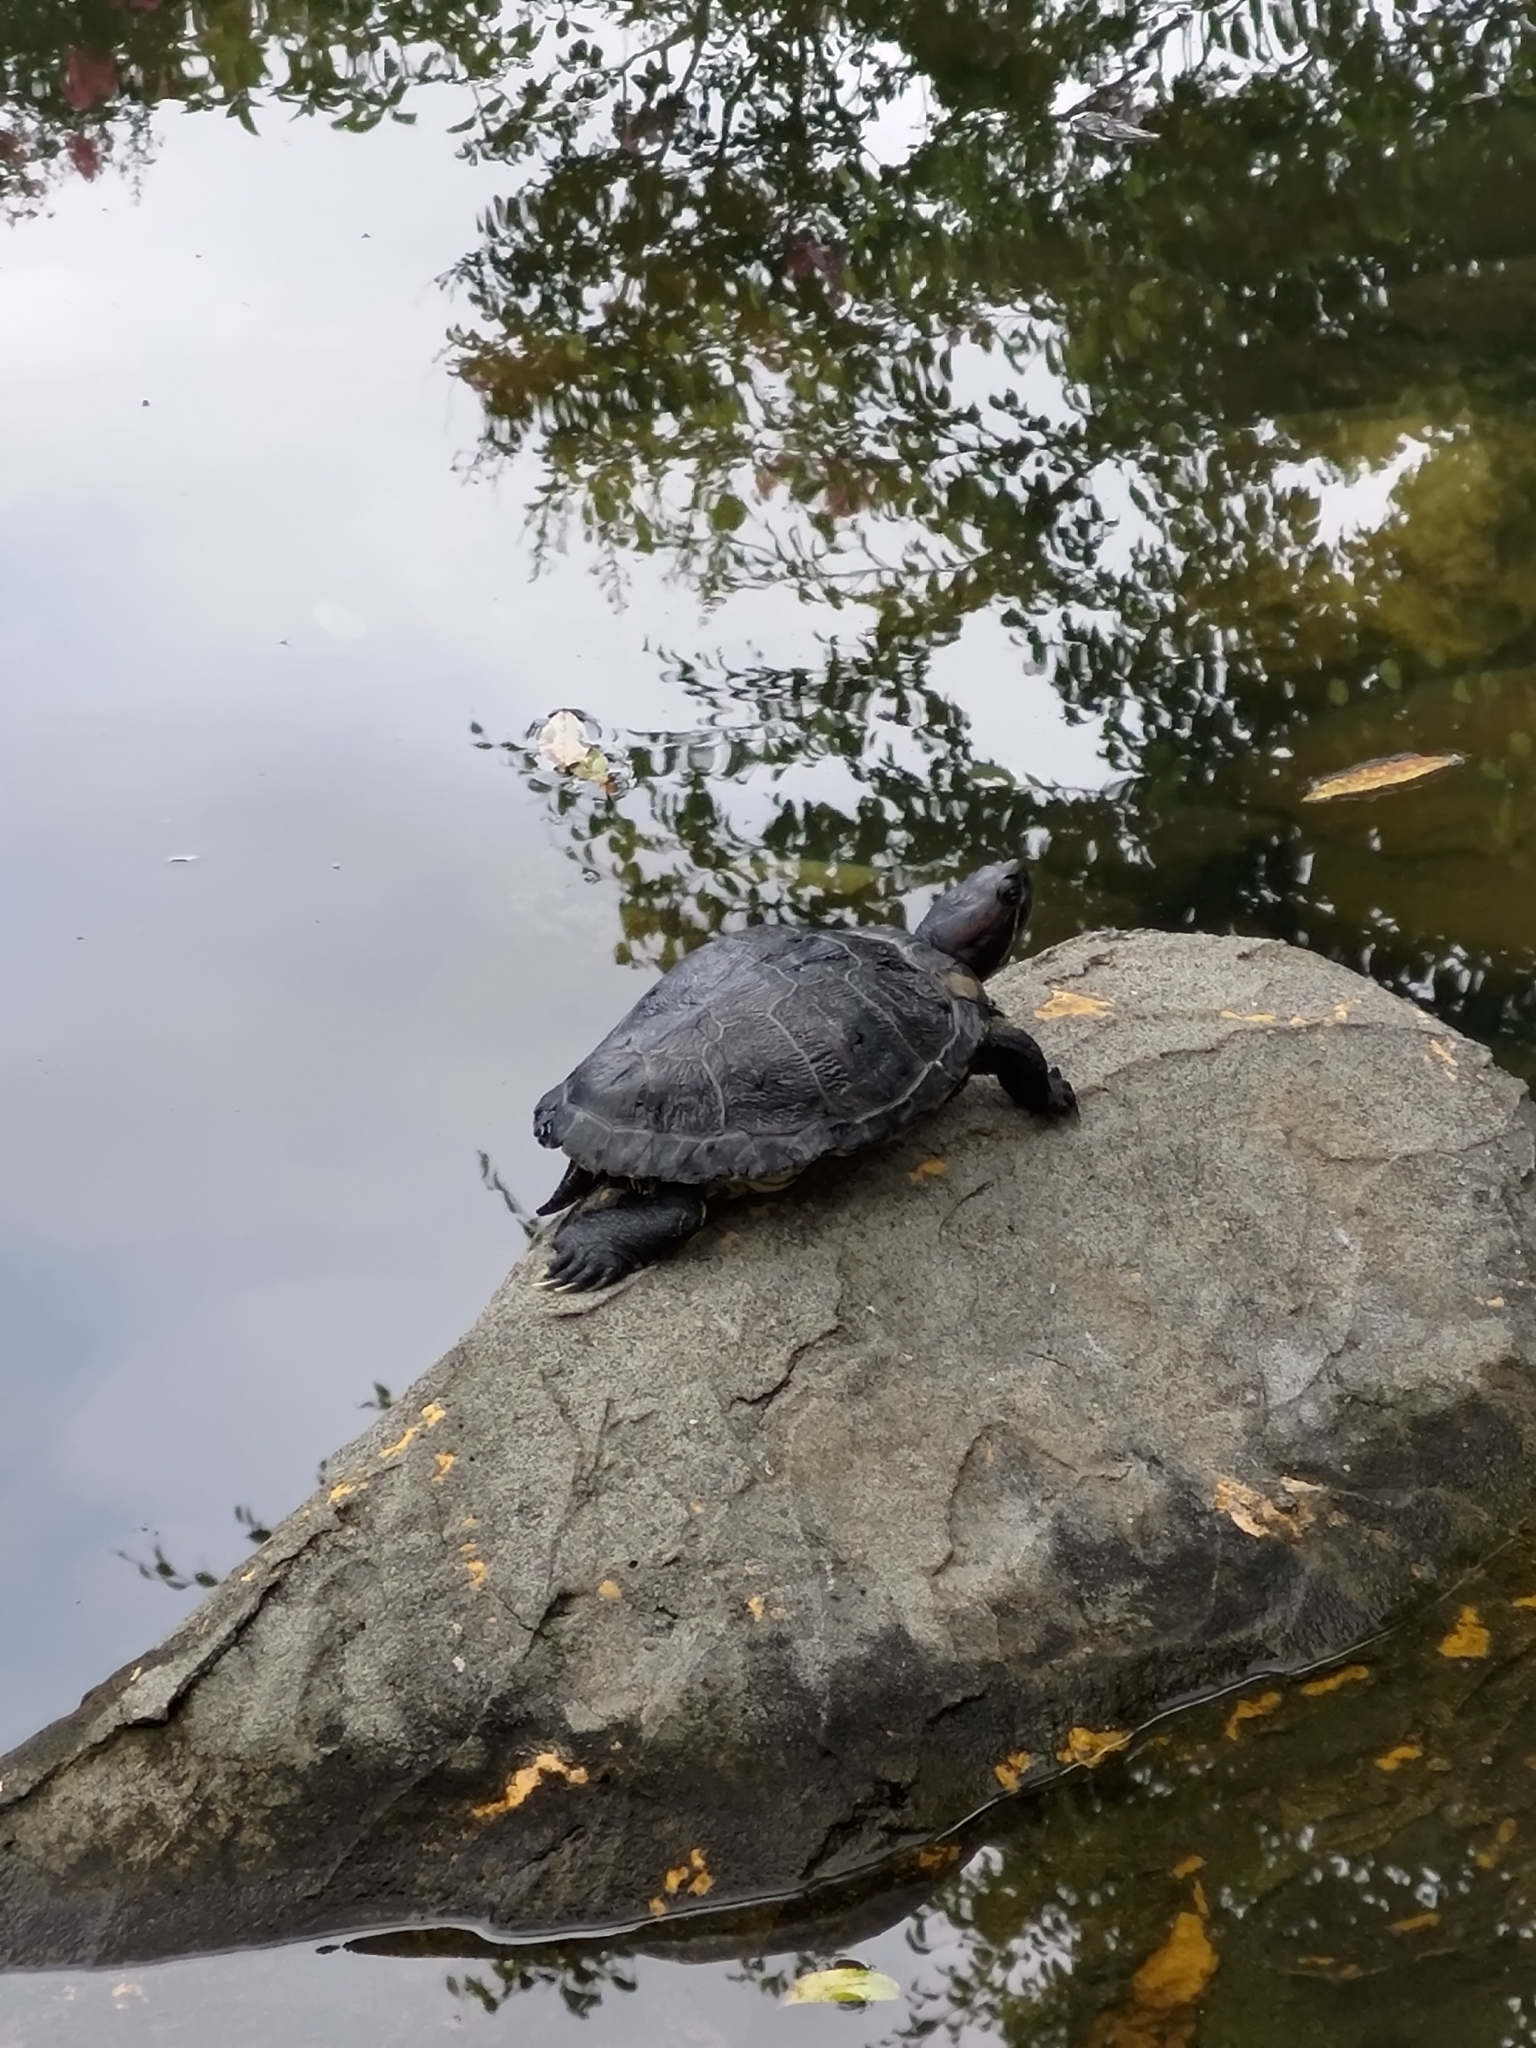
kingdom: Animalia
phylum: Chordata
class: Testudines
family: Emydidae
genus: Trachemys
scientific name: Trachemys scripta
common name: Slider
